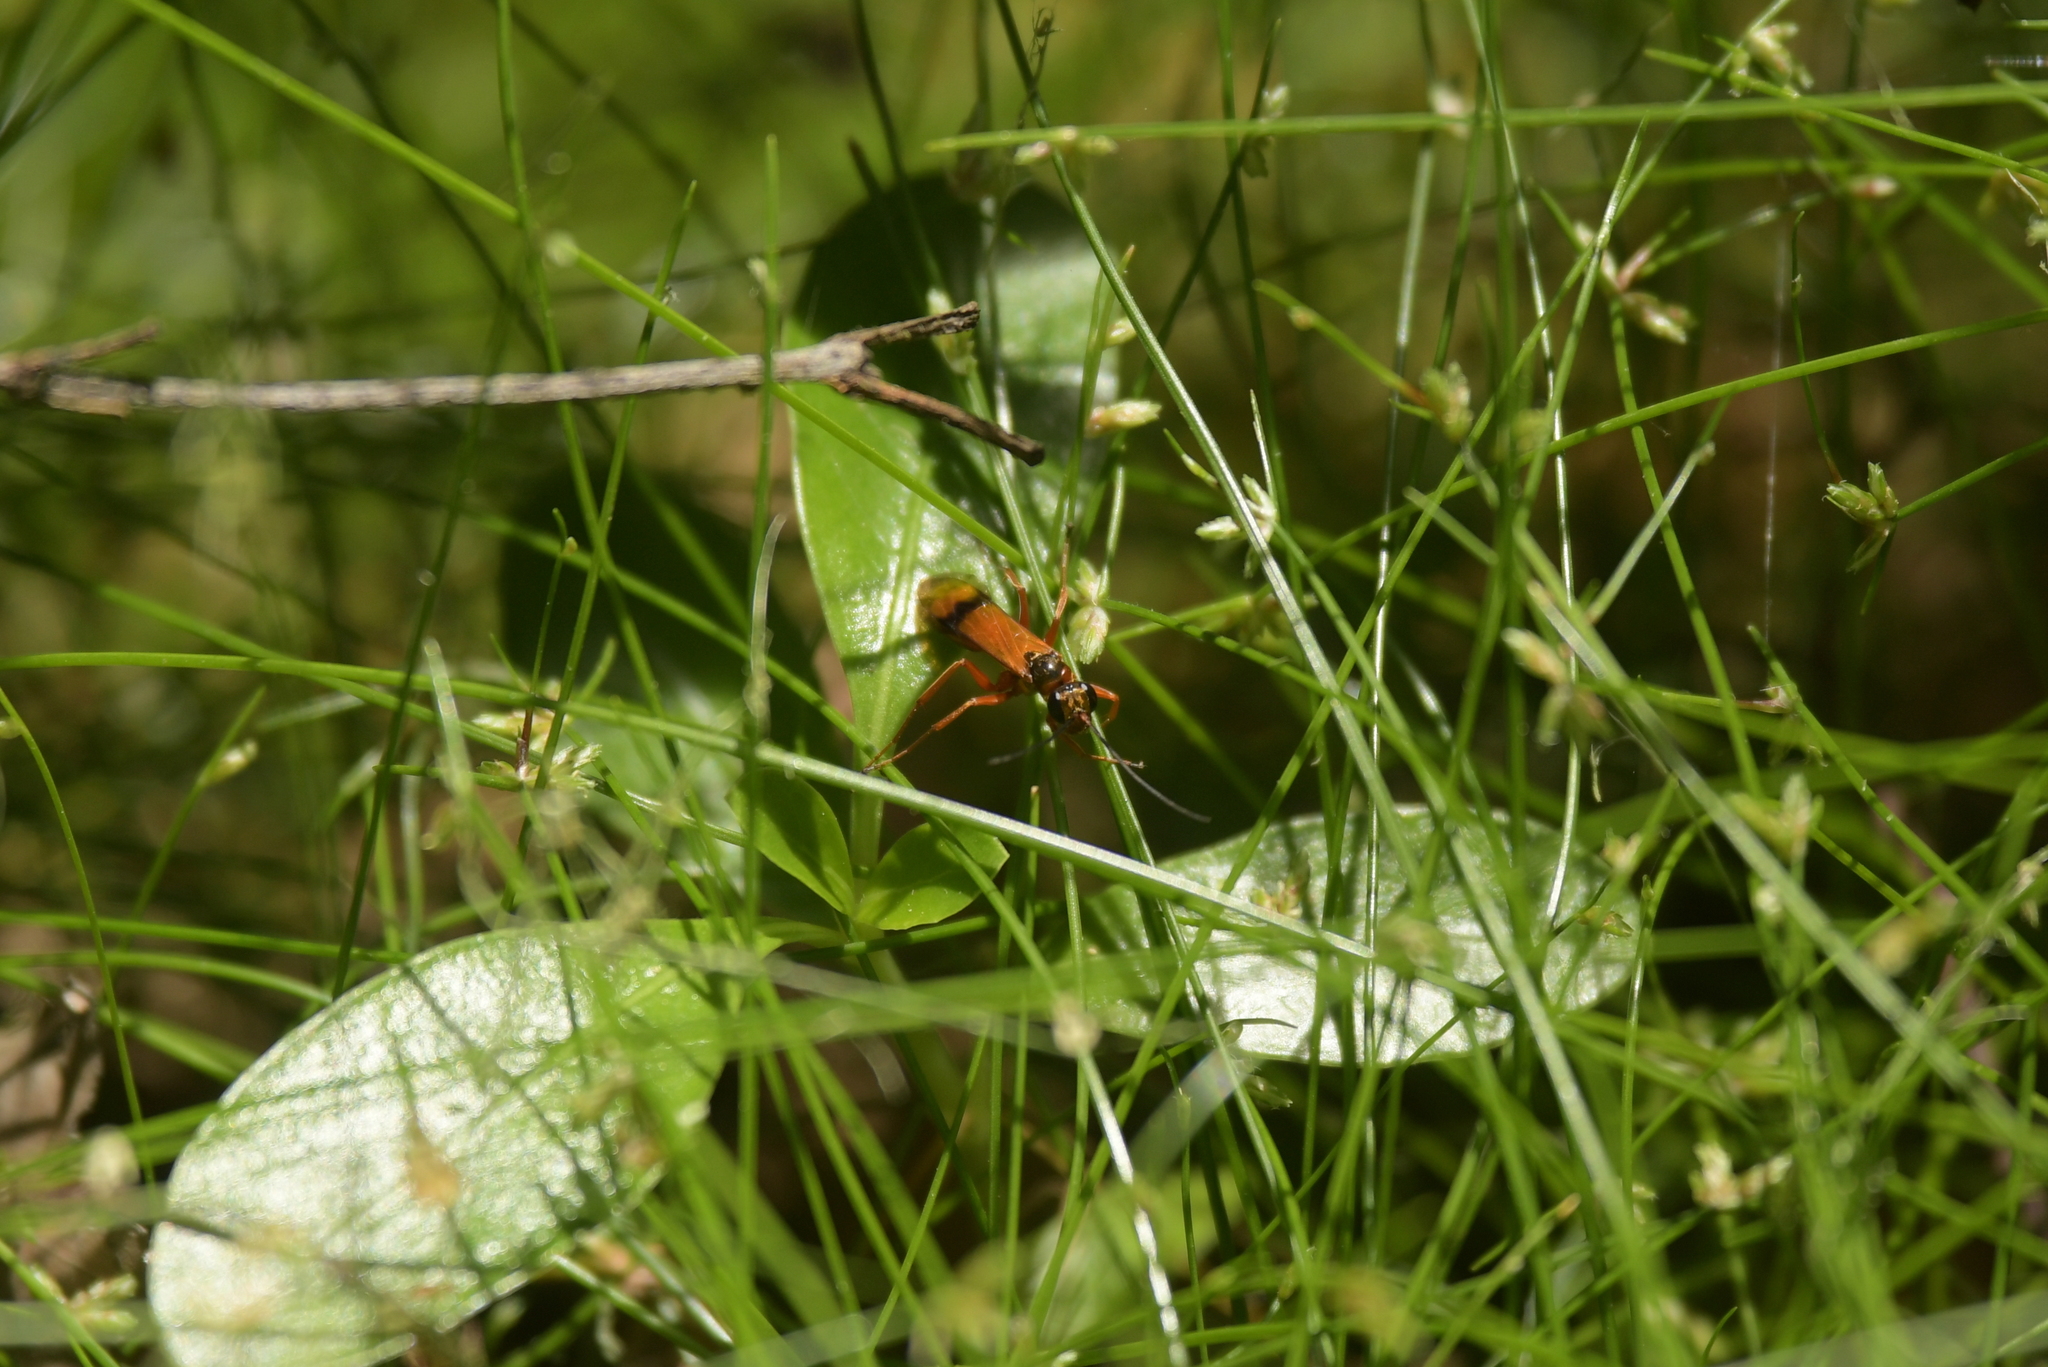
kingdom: Animalia
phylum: Arthropoda
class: Insecta
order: Hymenoptera
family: Pompilidae
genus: Sphictostethus
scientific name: Sphictostethus calvus
